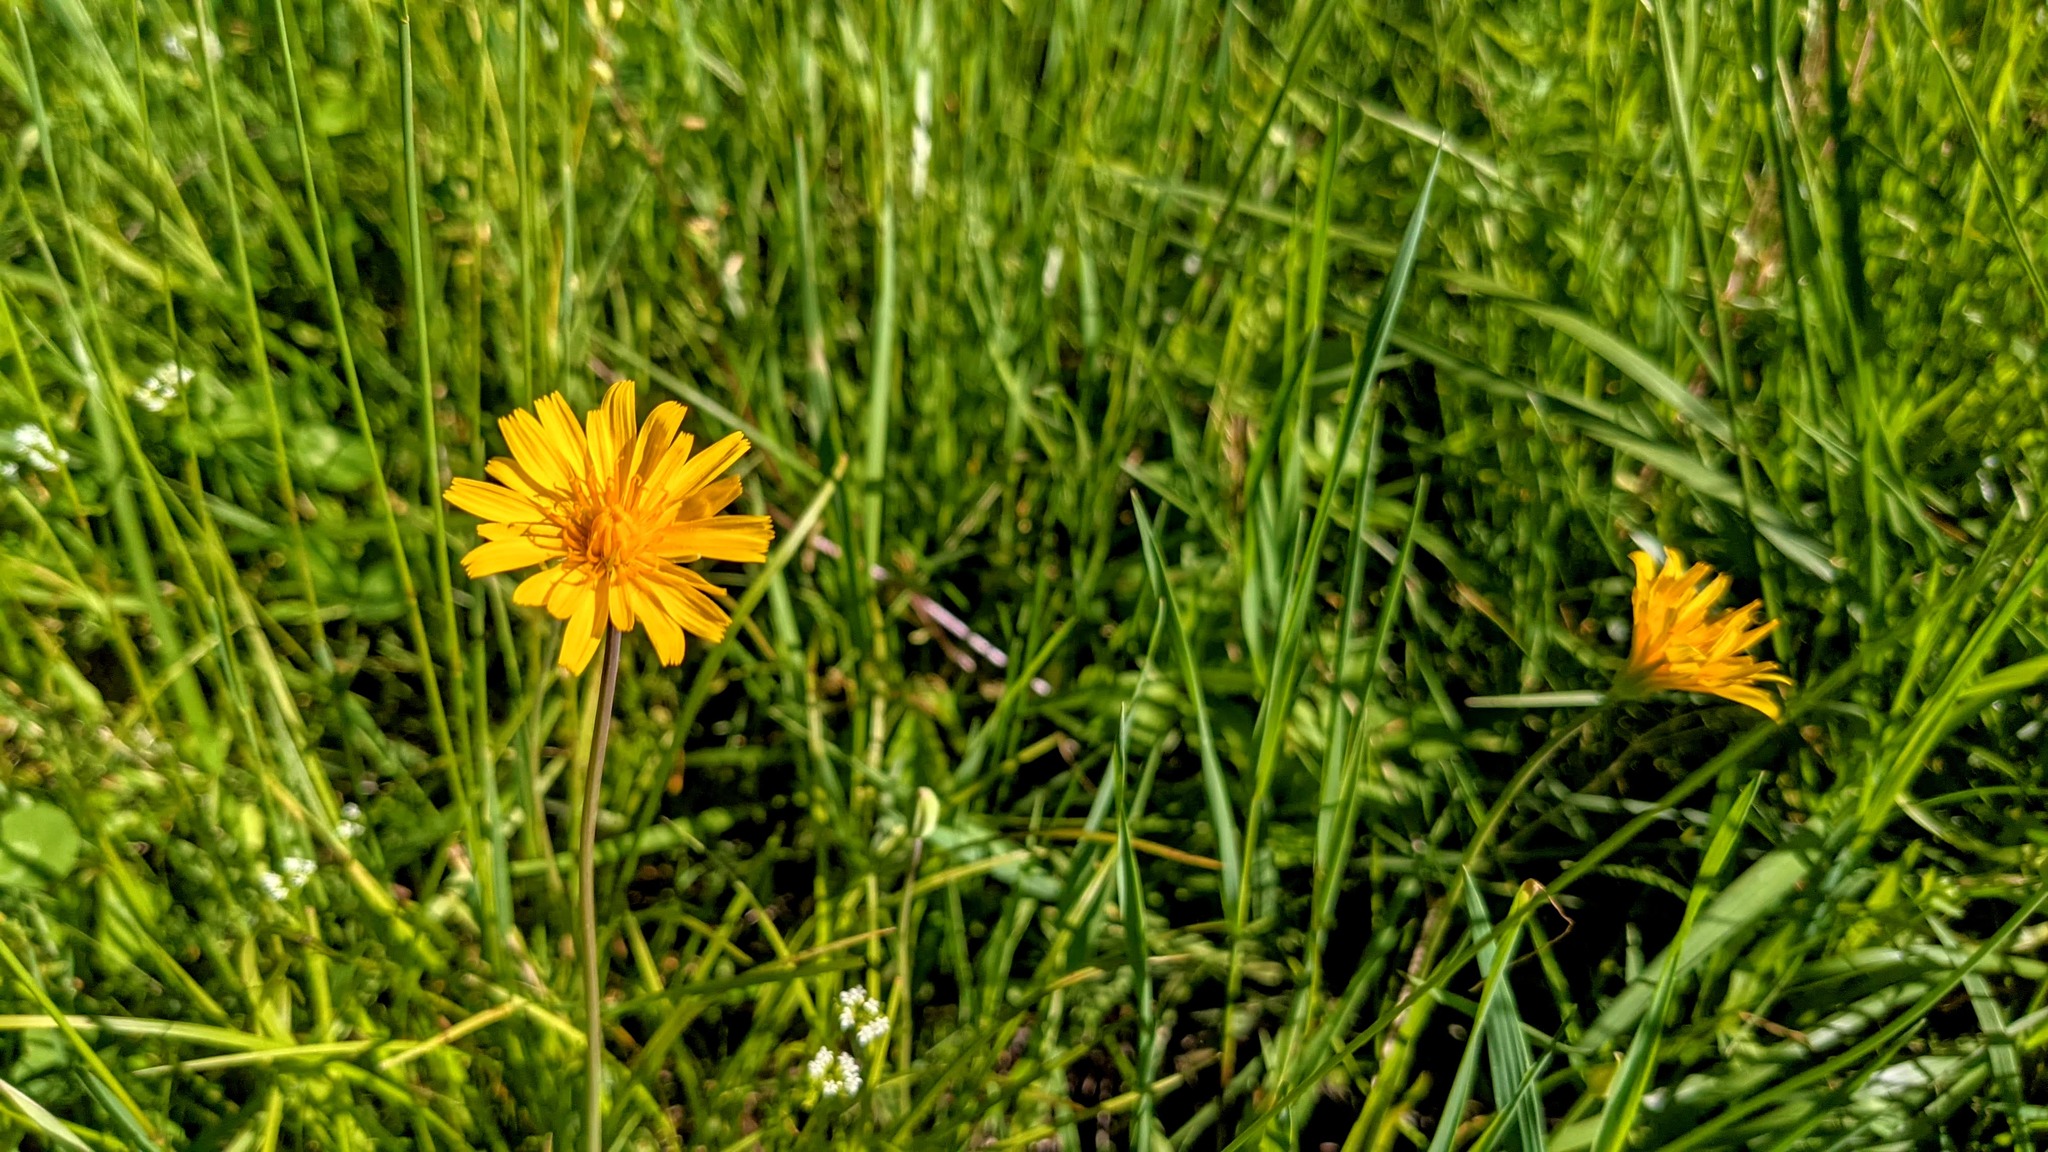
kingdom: Plantae
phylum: Tracheophyta
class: Magnoliopsida
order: Asterales
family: Asteraceae
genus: Krigia
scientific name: Krigia dandelion
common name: Colonial dwarf-dandelion
